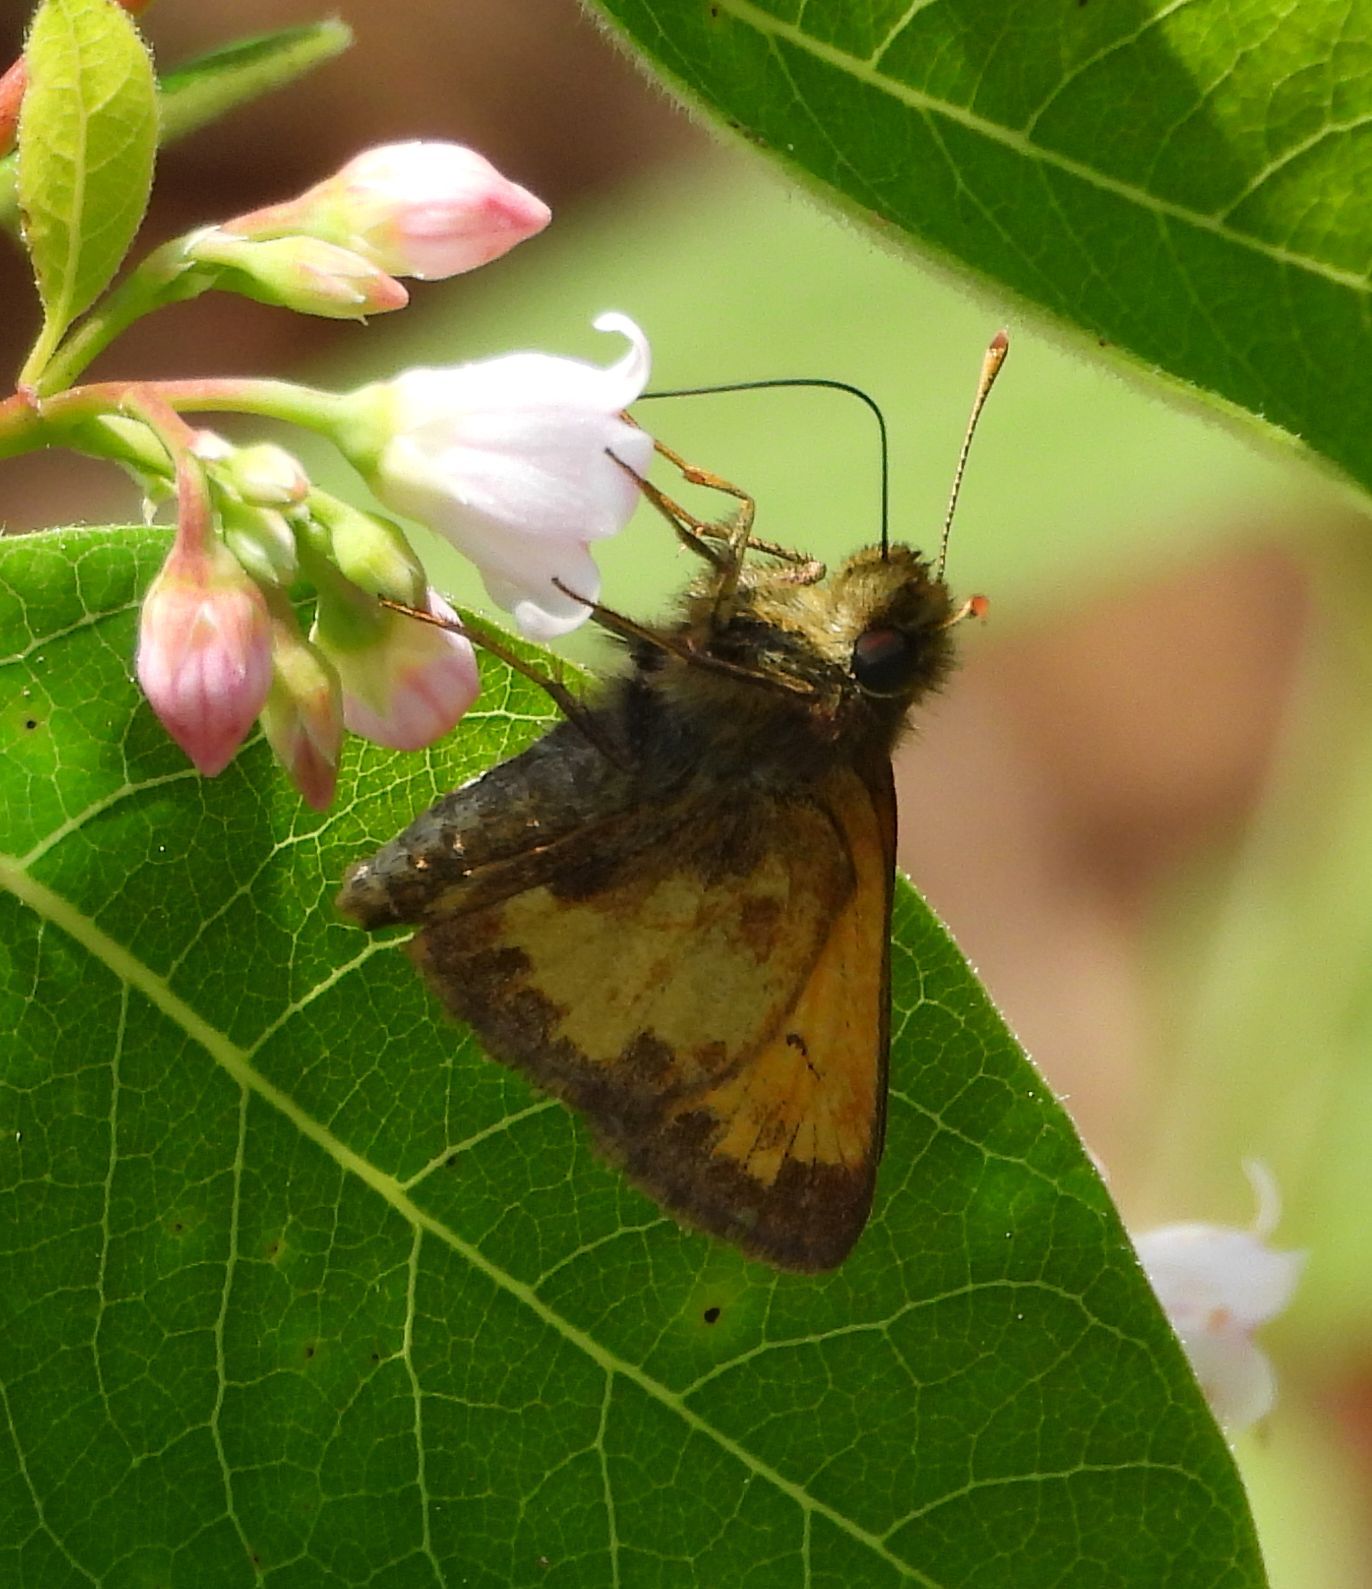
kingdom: Animalia
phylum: Arthropoda
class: Insecta
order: Lepidoptera
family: Hesperiidae
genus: Lon
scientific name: Lon hobomok
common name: Hobomok skipper
